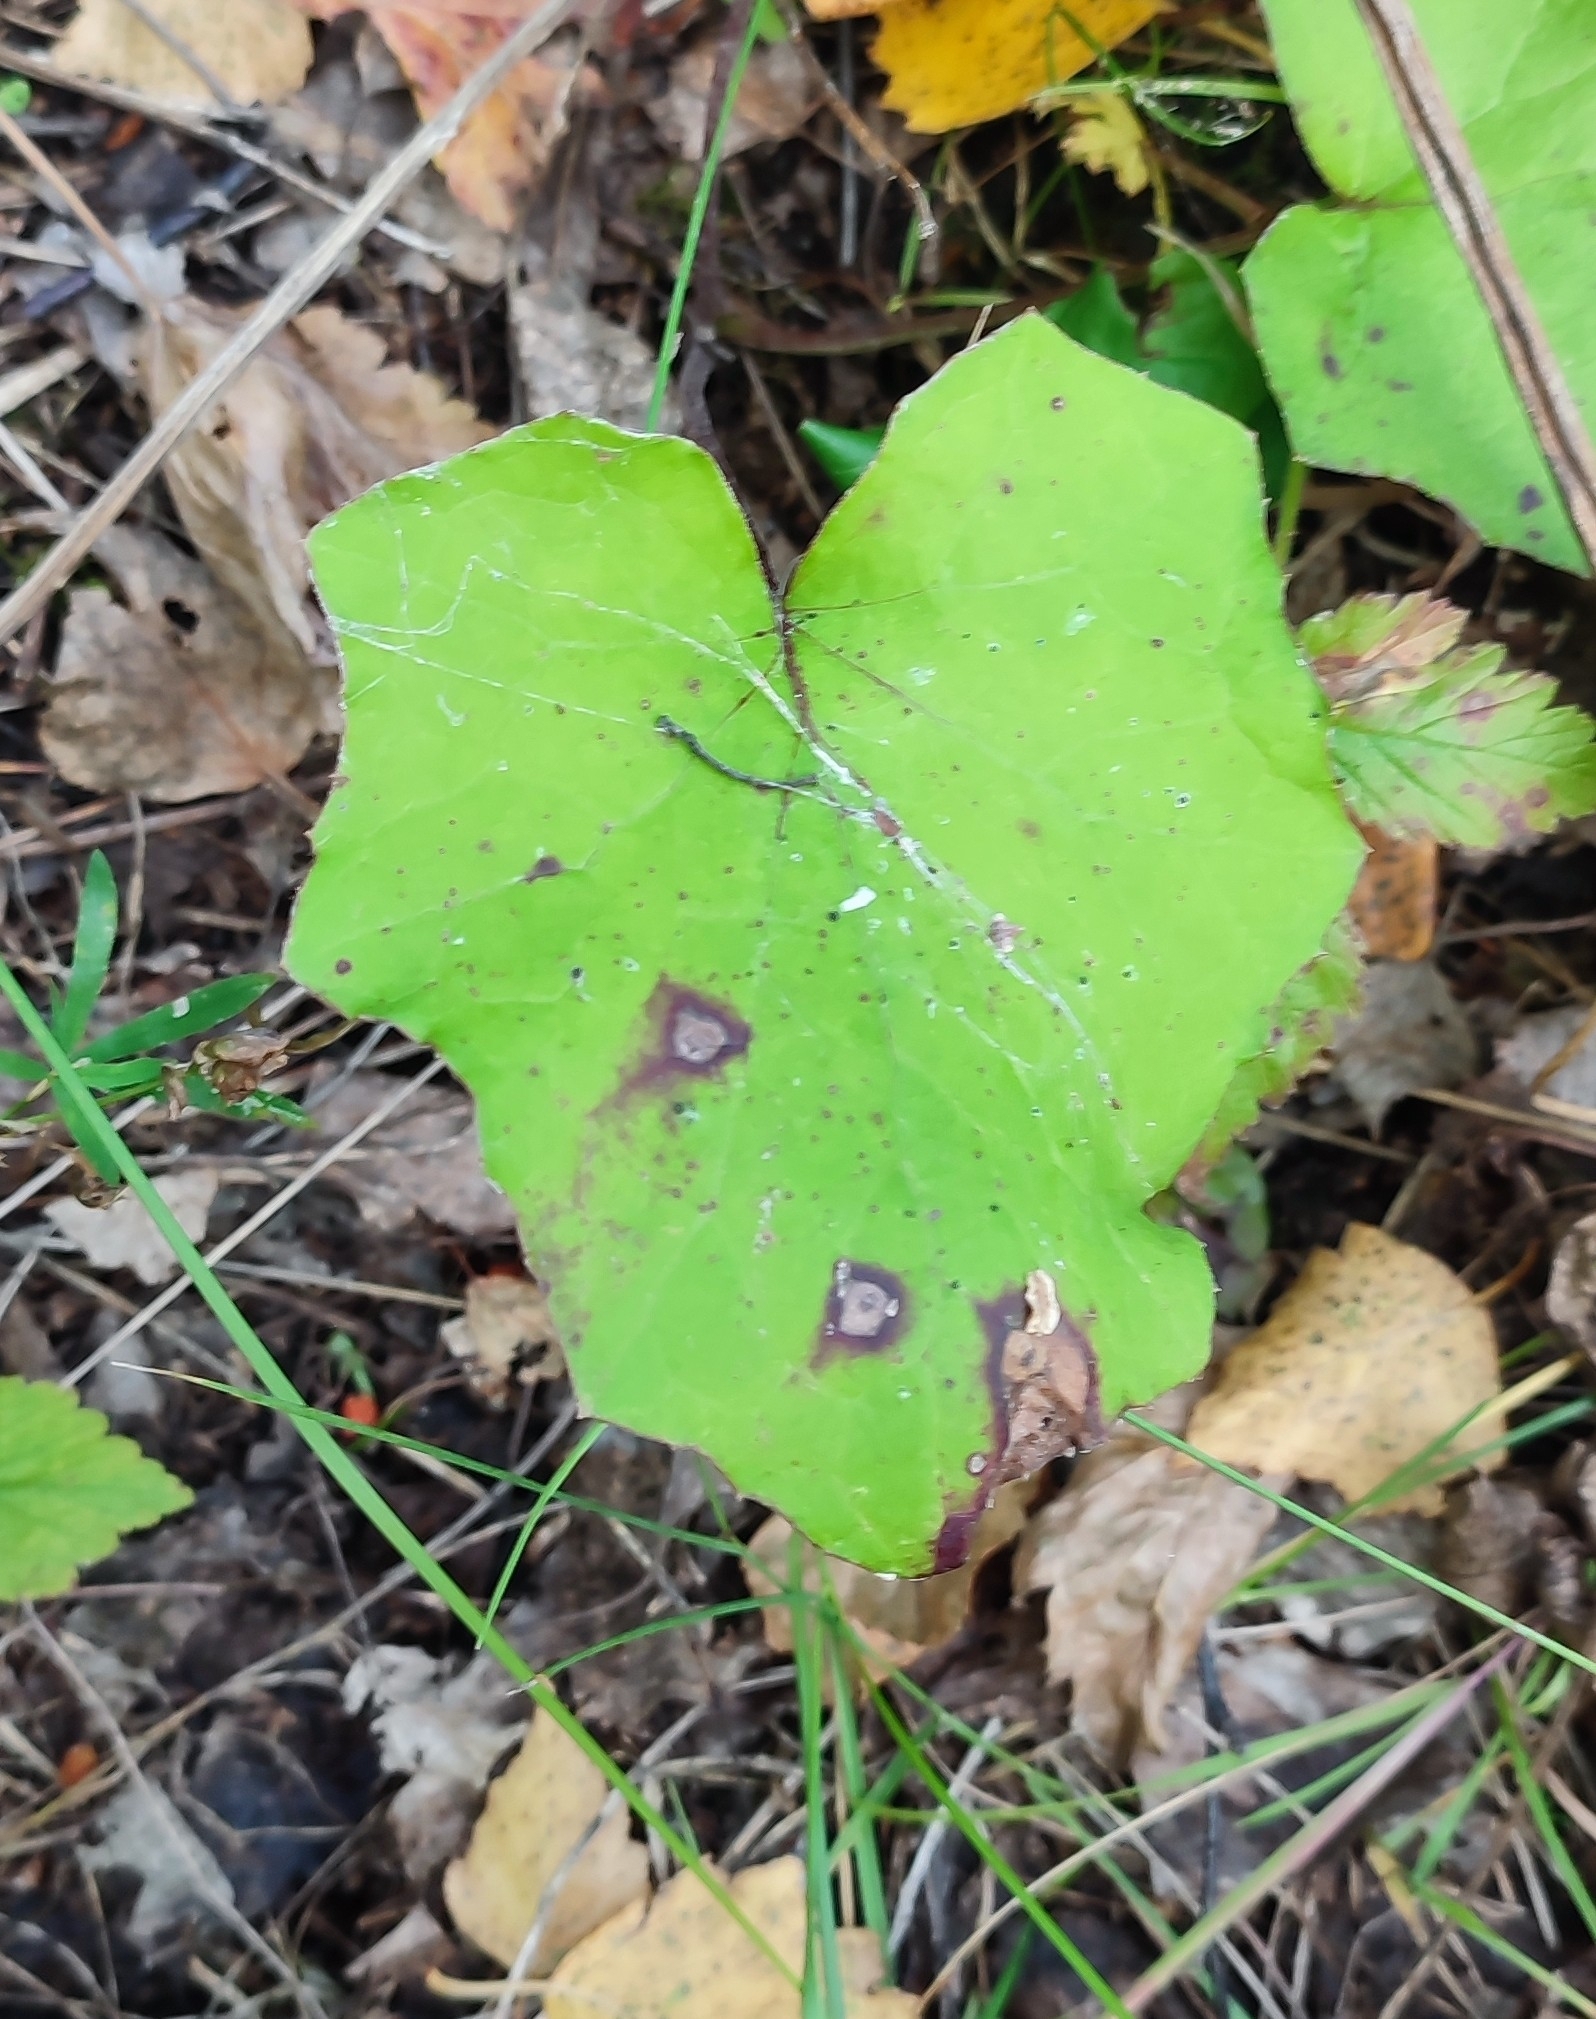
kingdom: Plantae
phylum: Tracheophyta
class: Magnoliopsida
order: Asterales
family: Asteraceae
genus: Tussilago
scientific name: Tussilago farfara
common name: Coltsfoot
